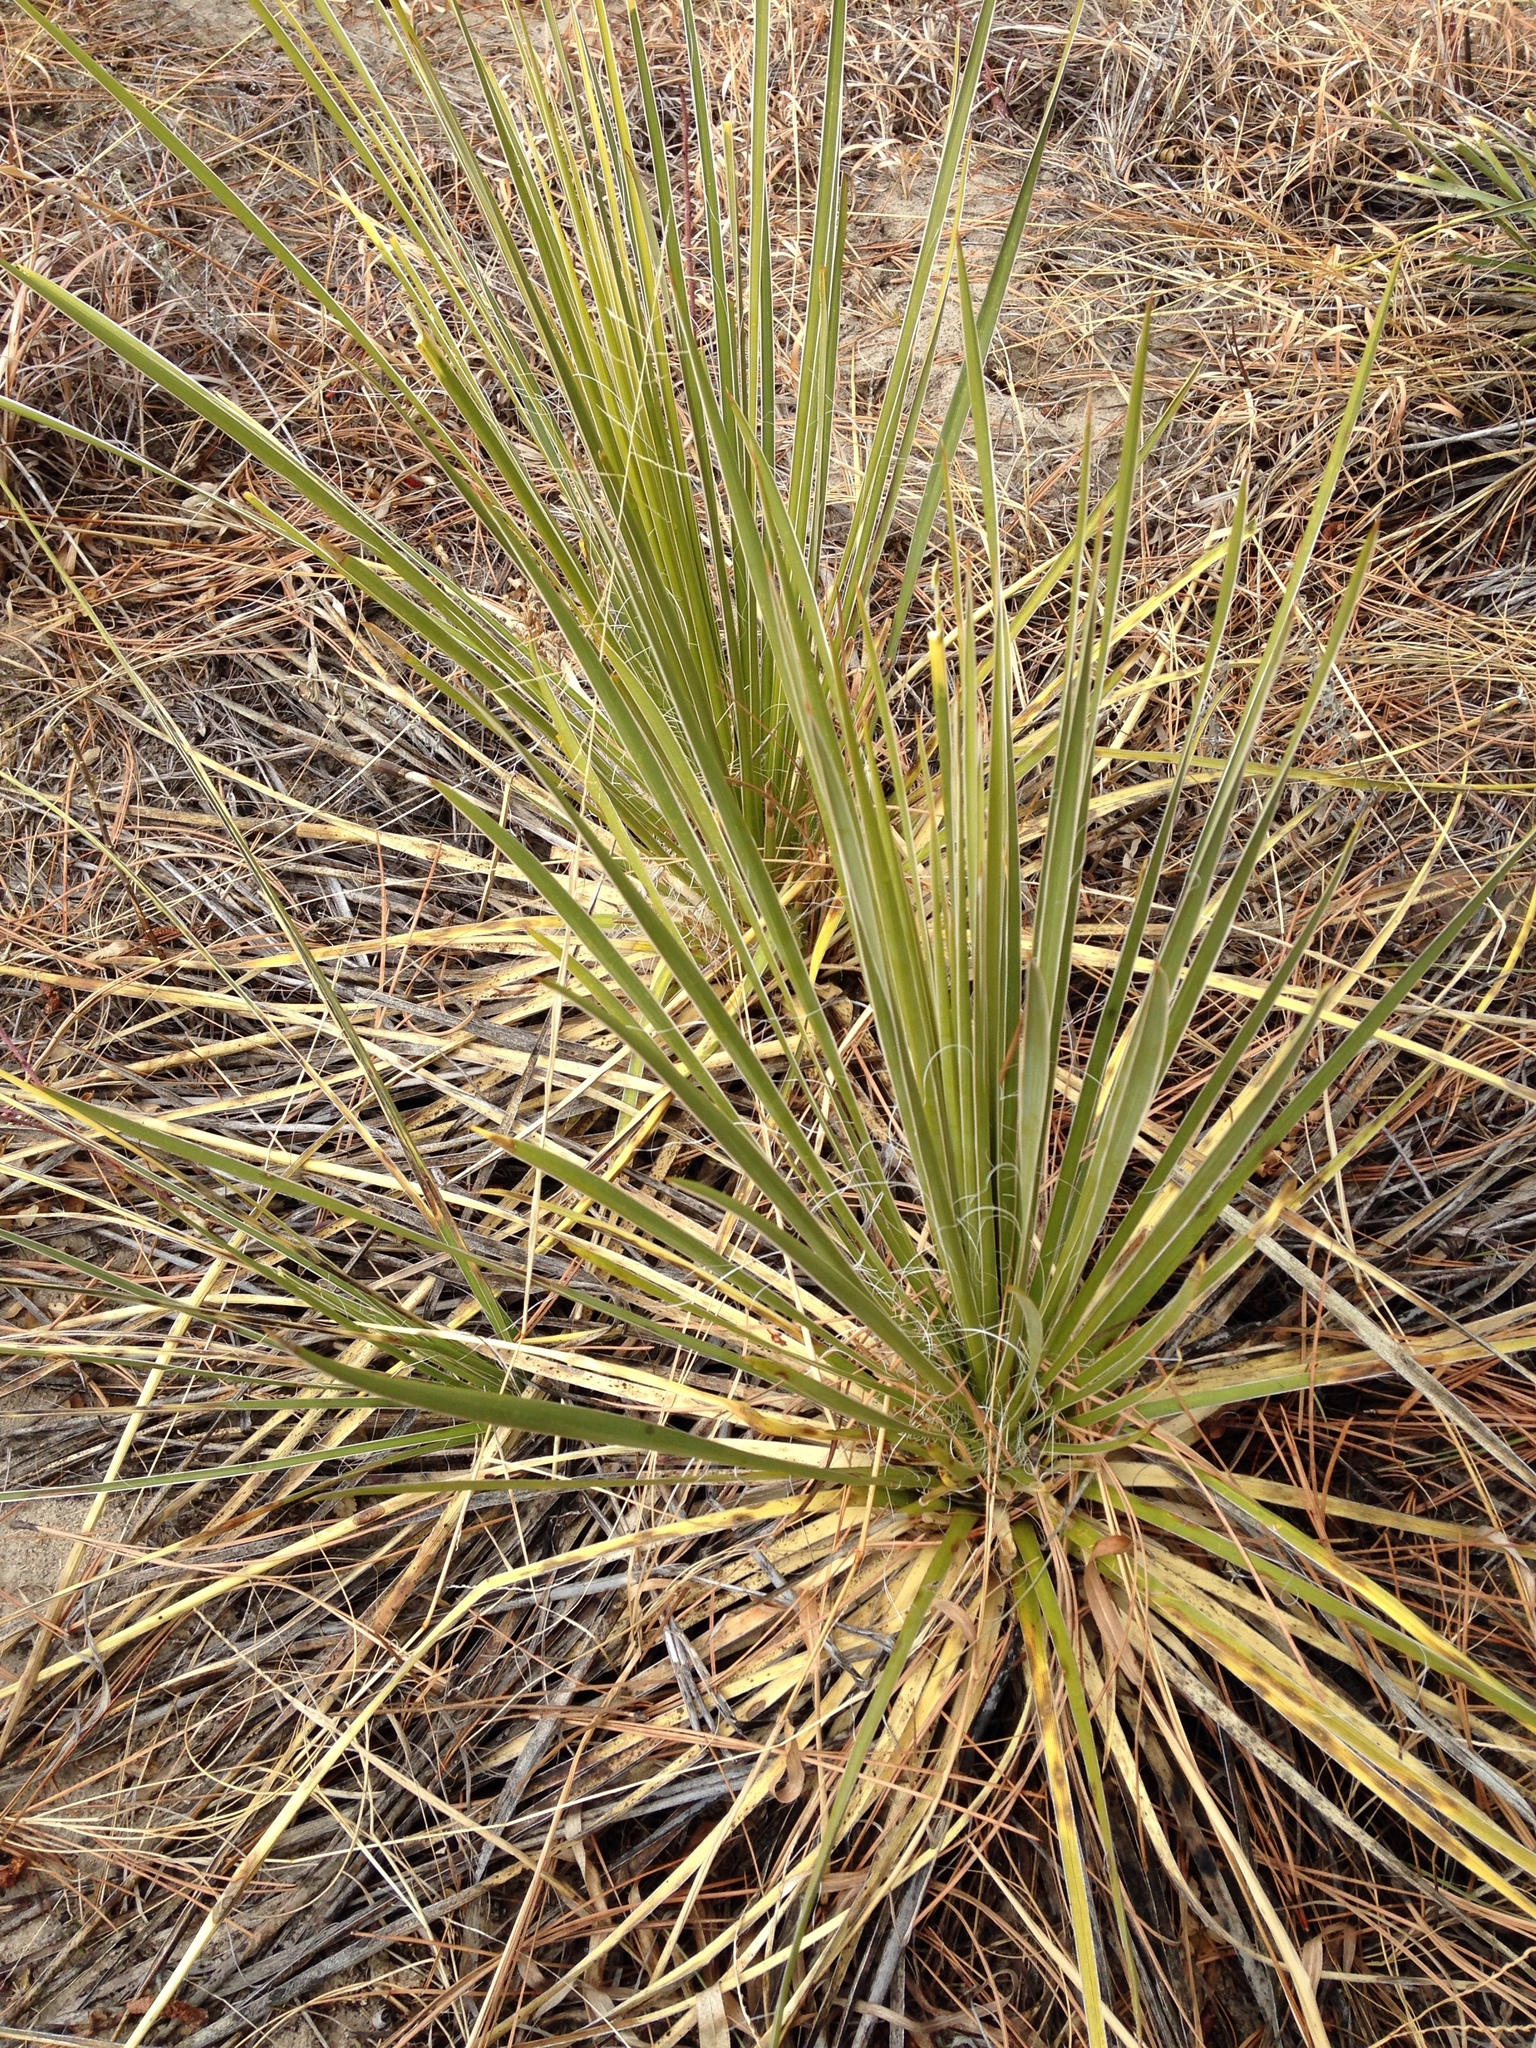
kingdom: Plantae
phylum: Tracheophyta
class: Liliopsida
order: Asparagales
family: Asparagaceae
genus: Yucca
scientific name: Yucca glauca
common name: Great plains yucca
